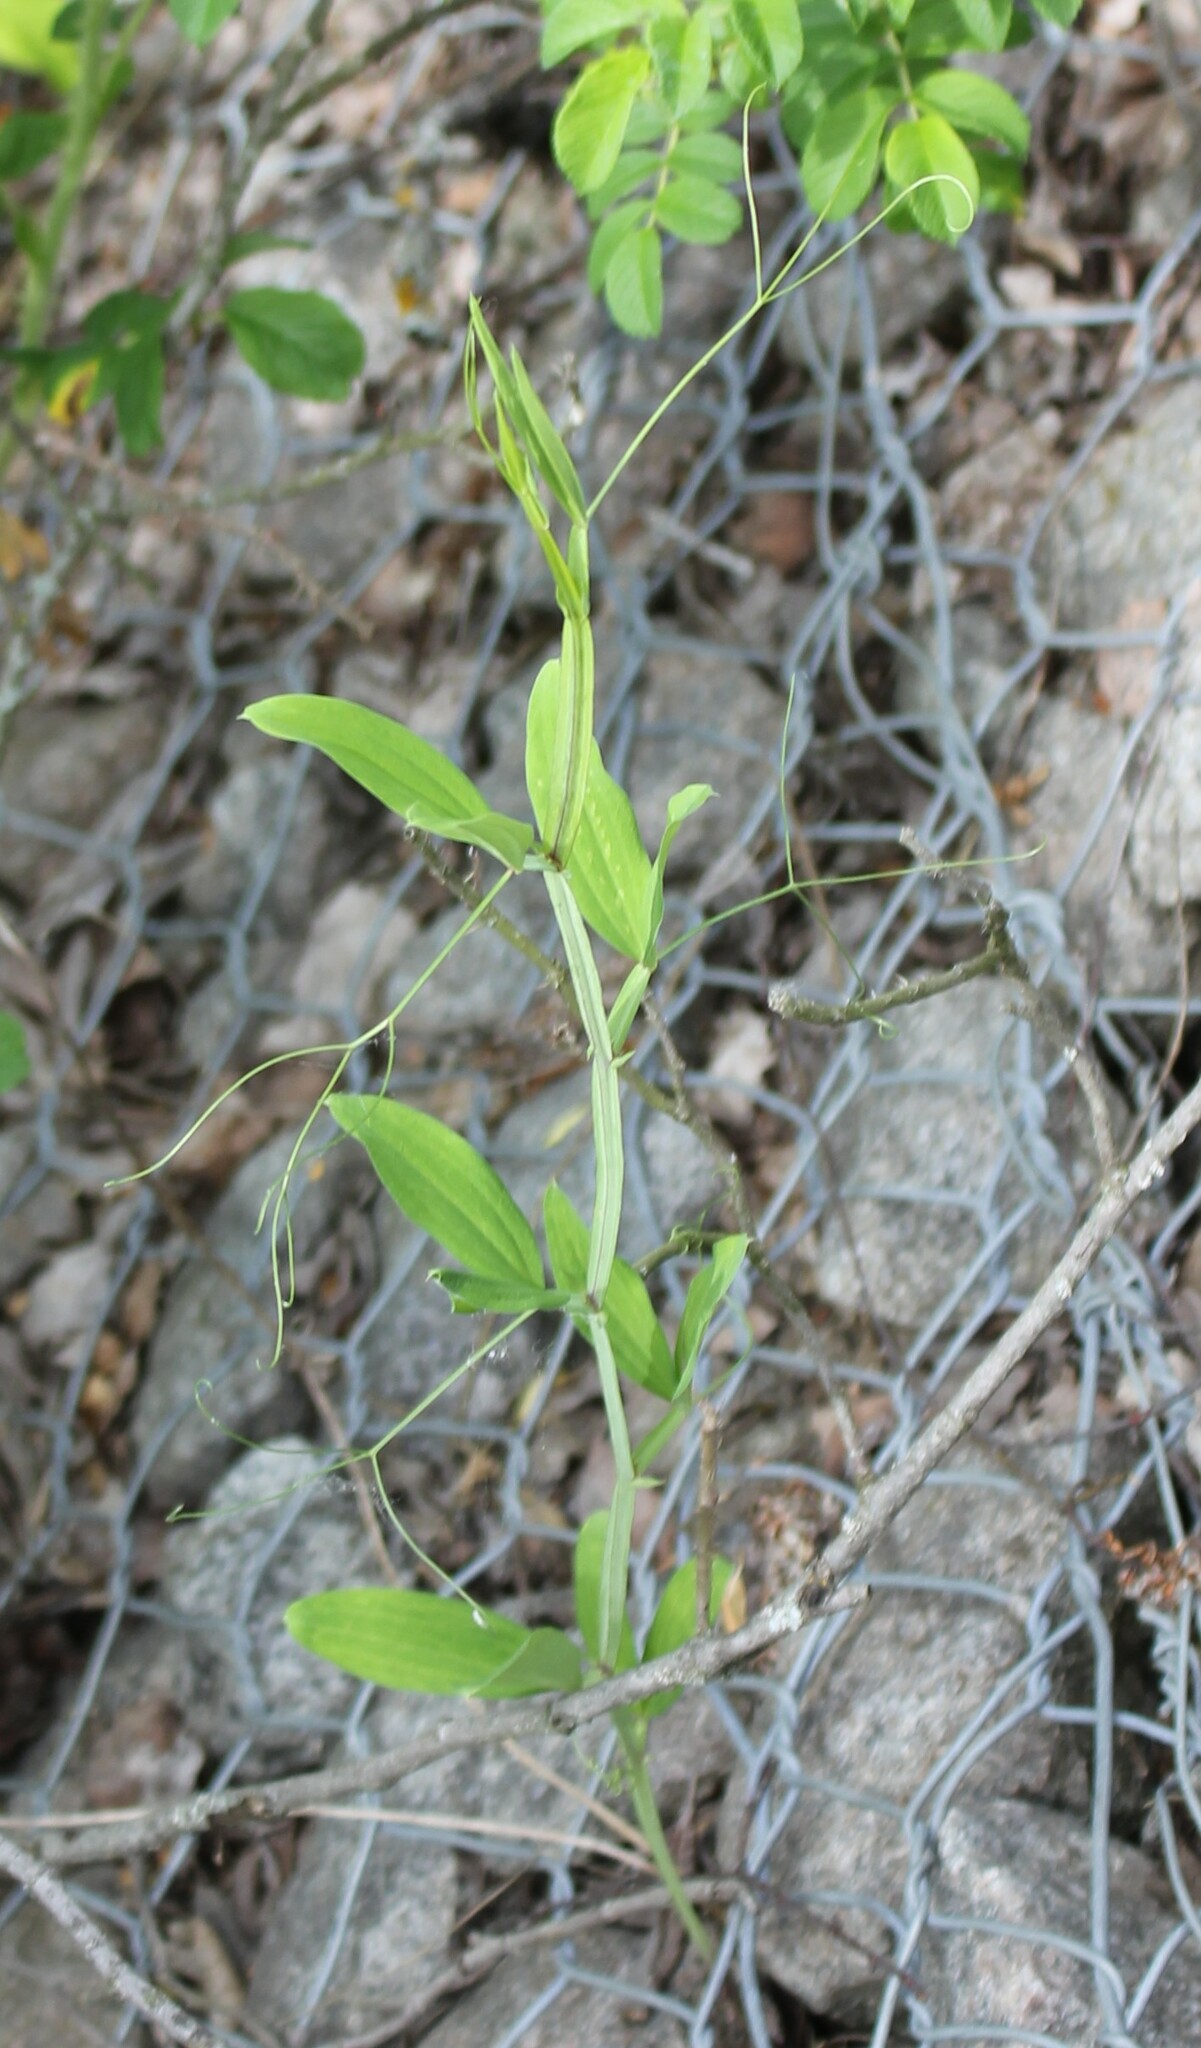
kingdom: Plantae
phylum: Tracheophyta
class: Magnoliopsida
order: Fabales
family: Fabaceae
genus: Lathyrus
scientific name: Lathyrus sylvestris
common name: Flat pea
